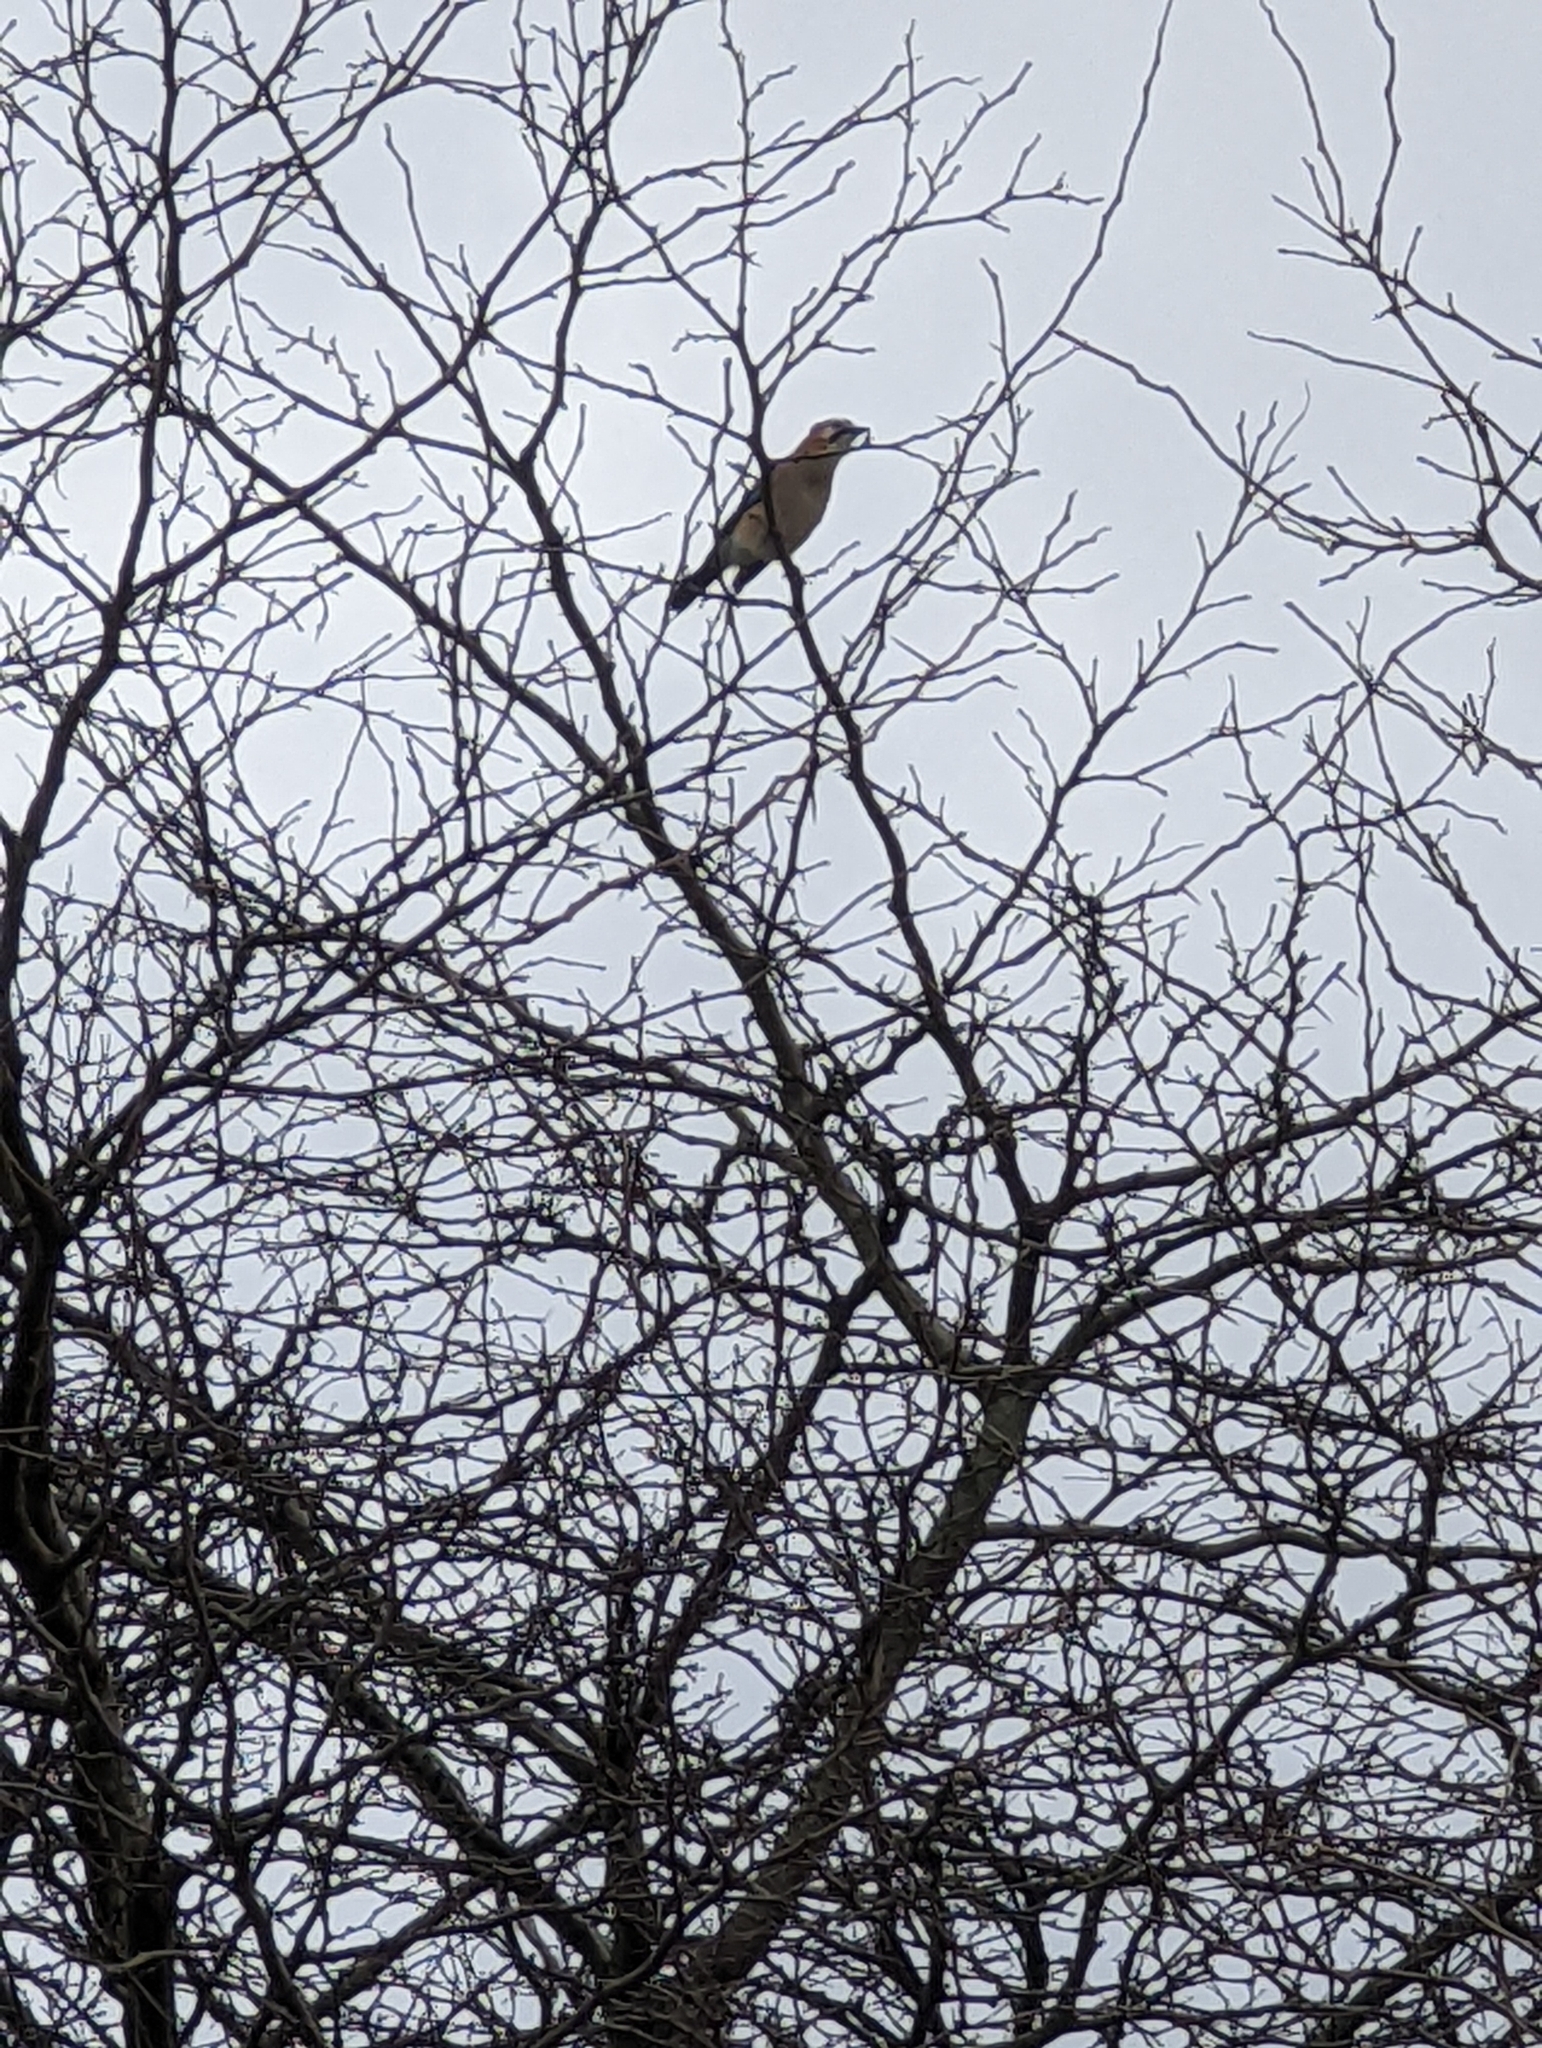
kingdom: Animalia
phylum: Chordata
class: Aves
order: Passeriformes
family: Corvidae
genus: Garrulus
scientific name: Garrulus glandarius
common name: Eurasian jay
